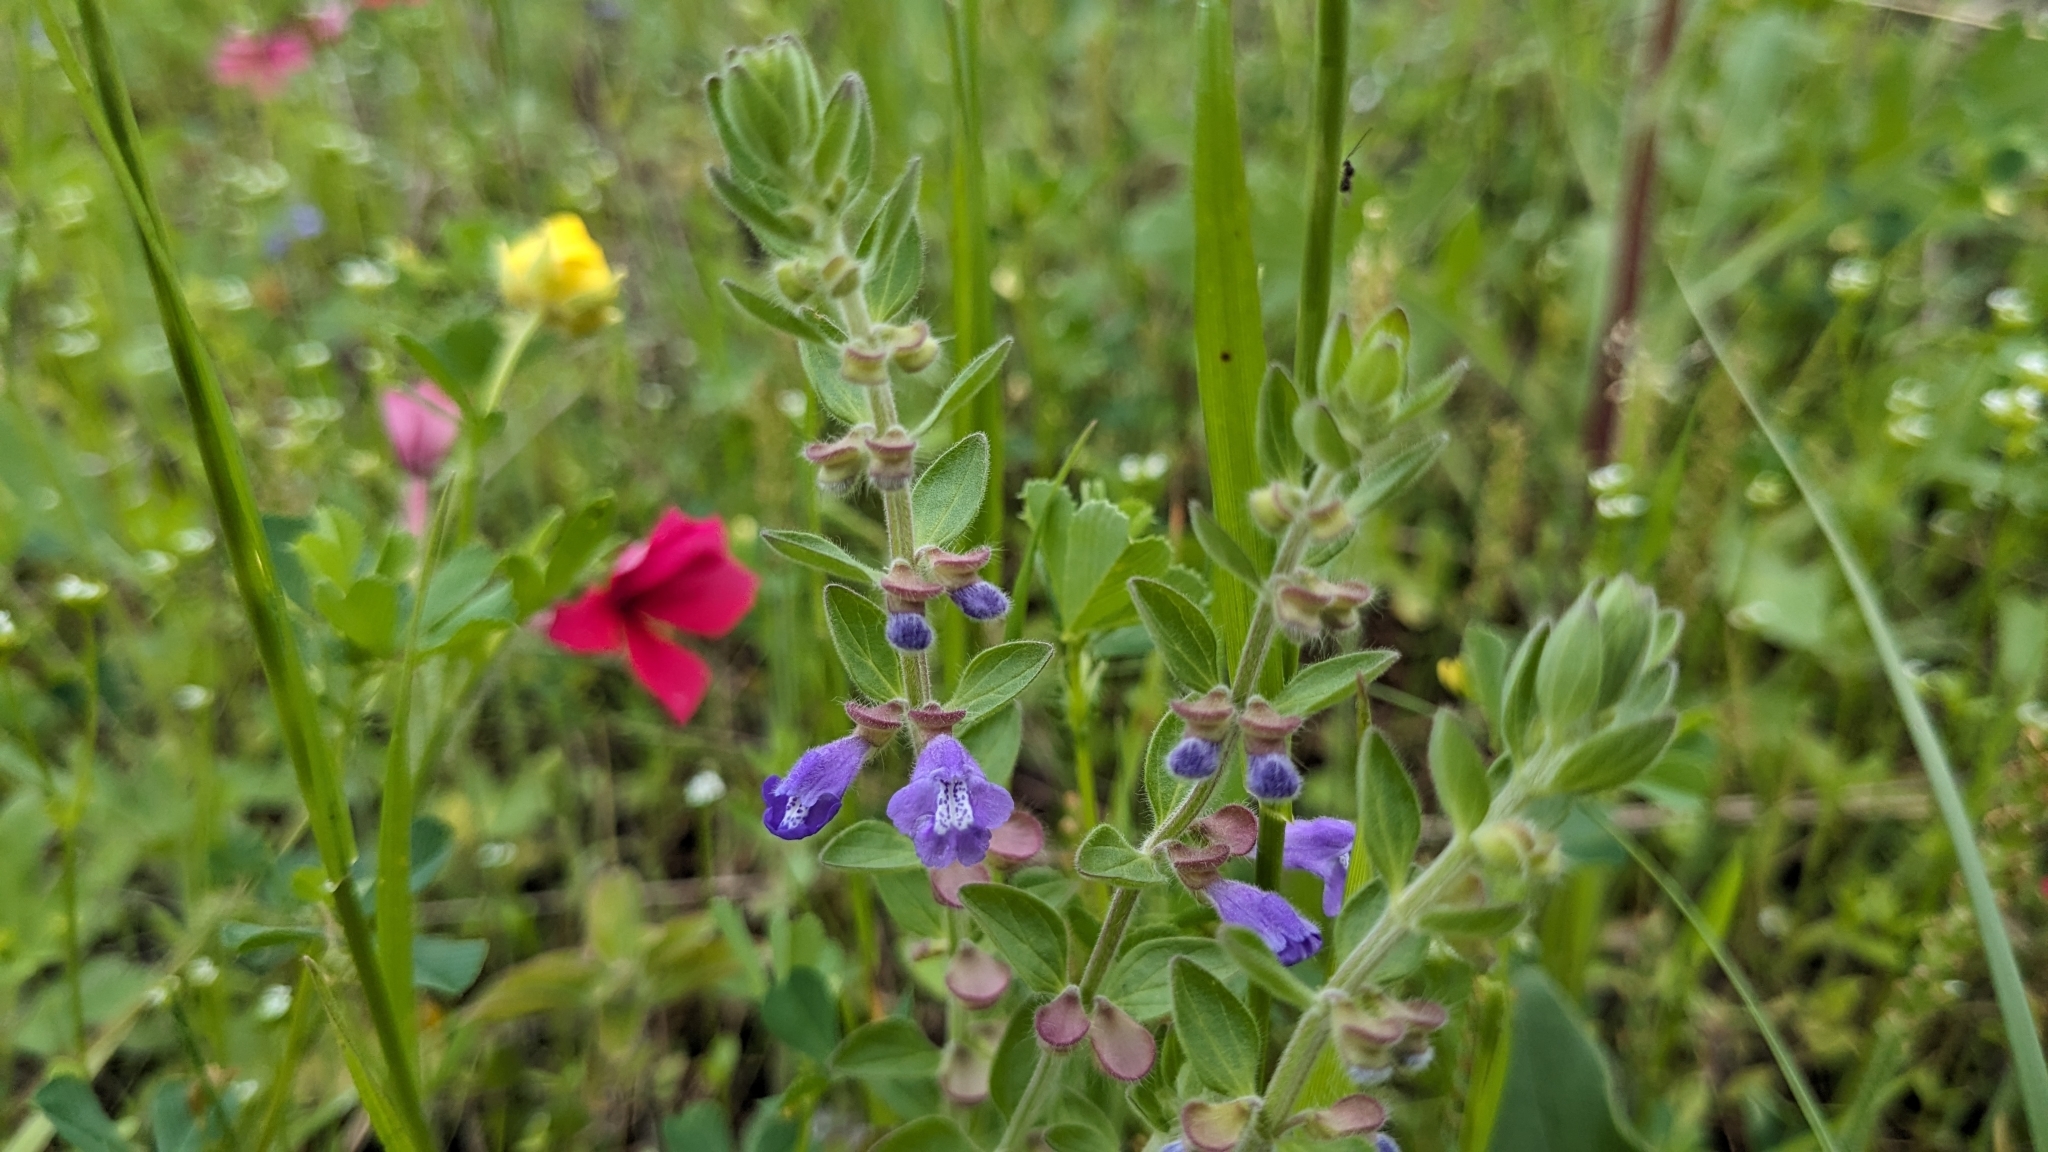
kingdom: Plantae
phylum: Tracheophyta
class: Magnoliopsida
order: Lamiales
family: Lamiaceae
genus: Scutellaria
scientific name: Scutellaria drummondii
